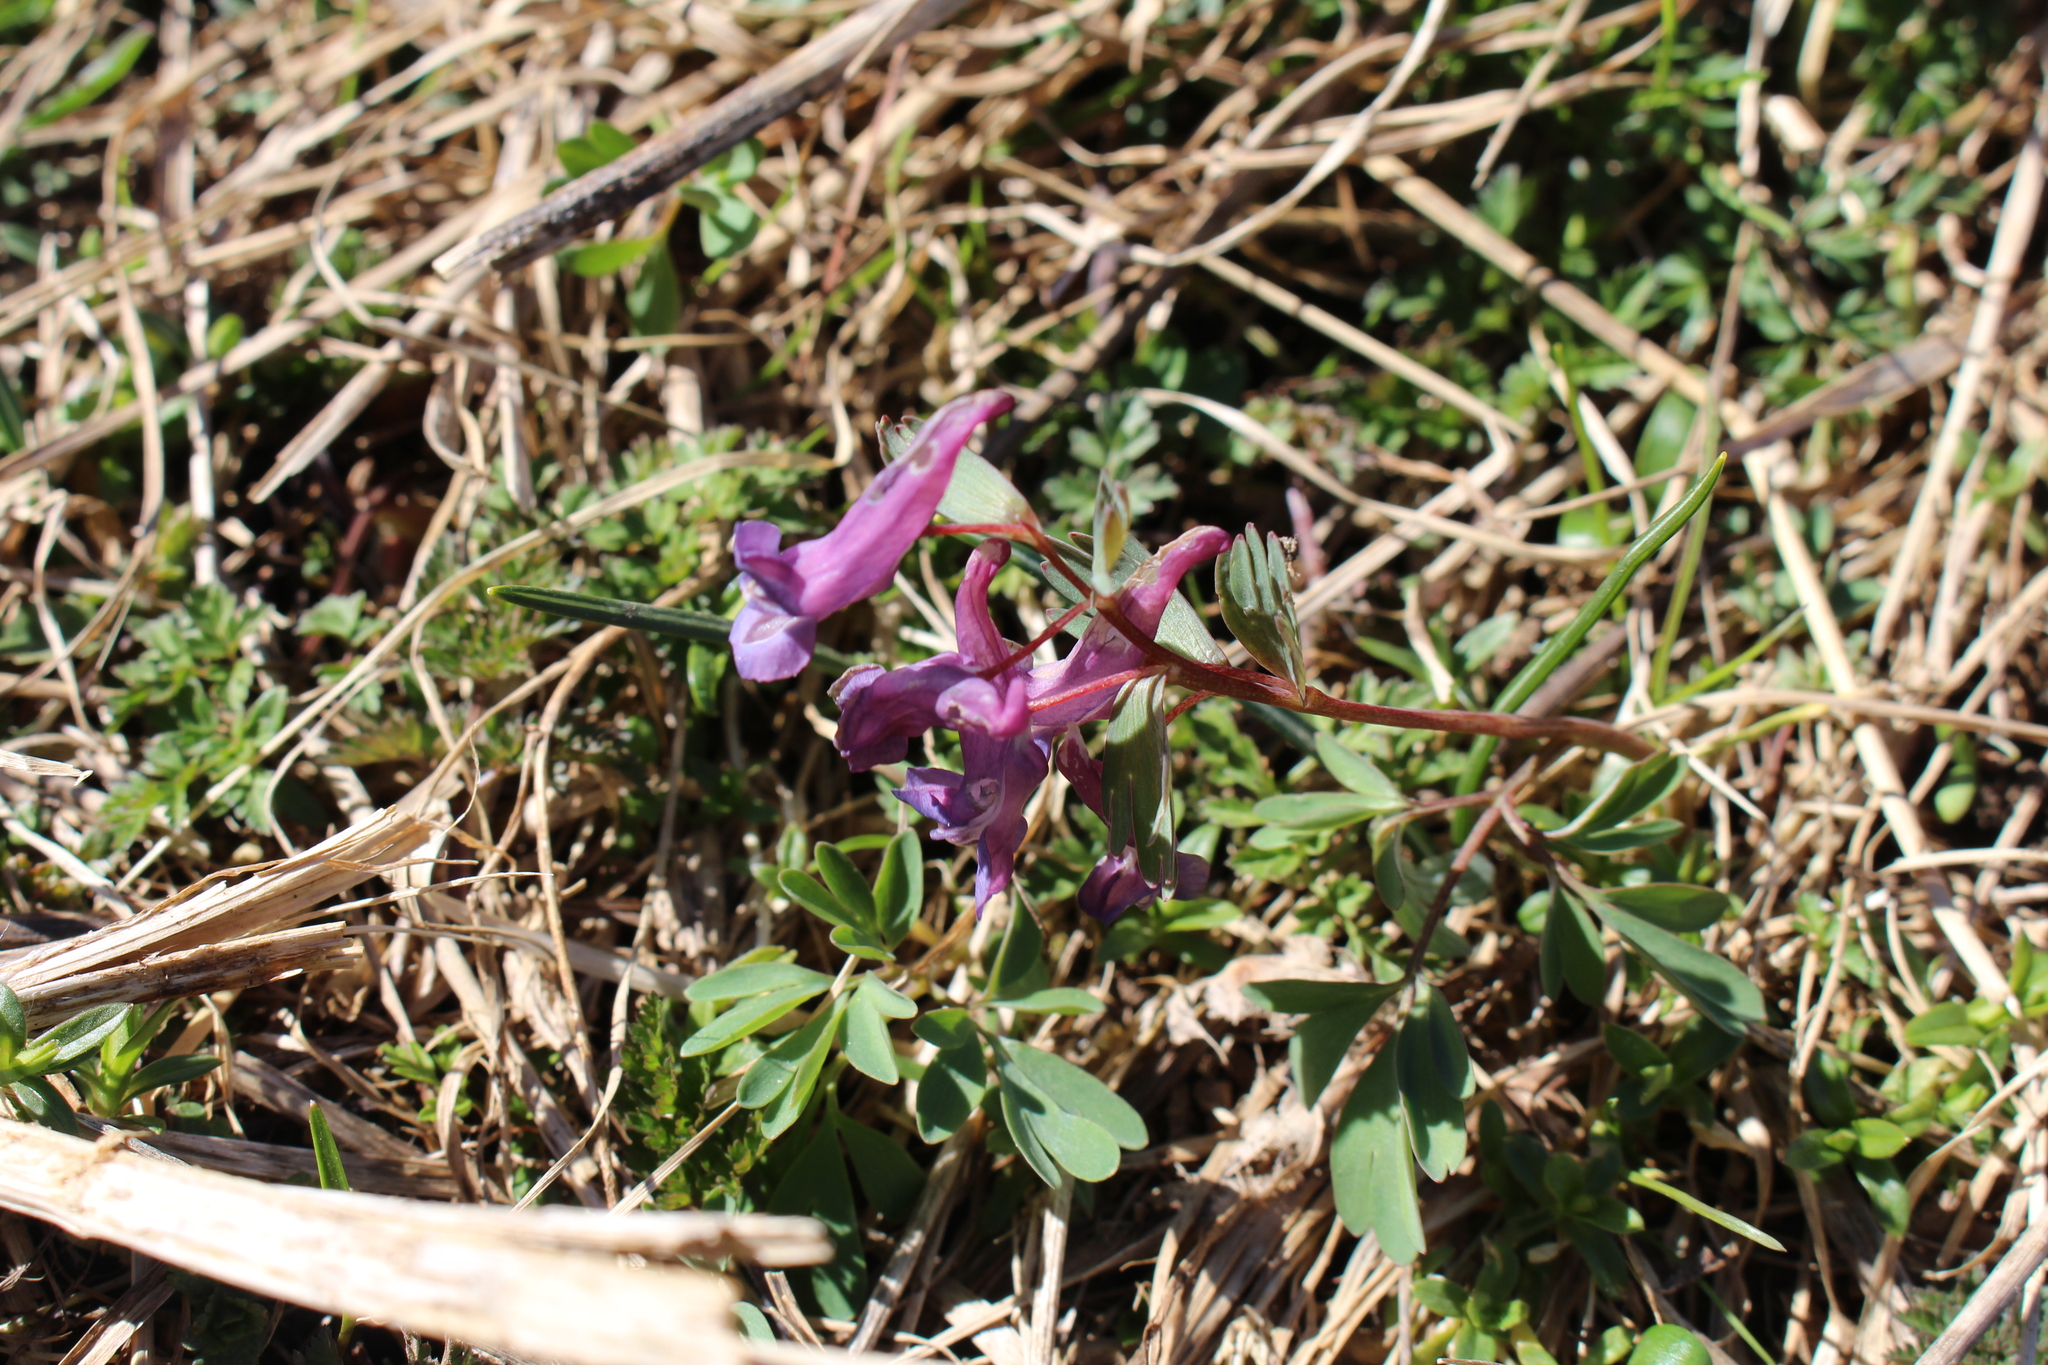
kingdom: Plantae
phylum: Tracheophyta
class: Magnoliopsida
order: Ranunculales
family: Papaveraceae
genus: Corydalis
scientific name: Corydalis solida
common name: Bird-in-a-bush
